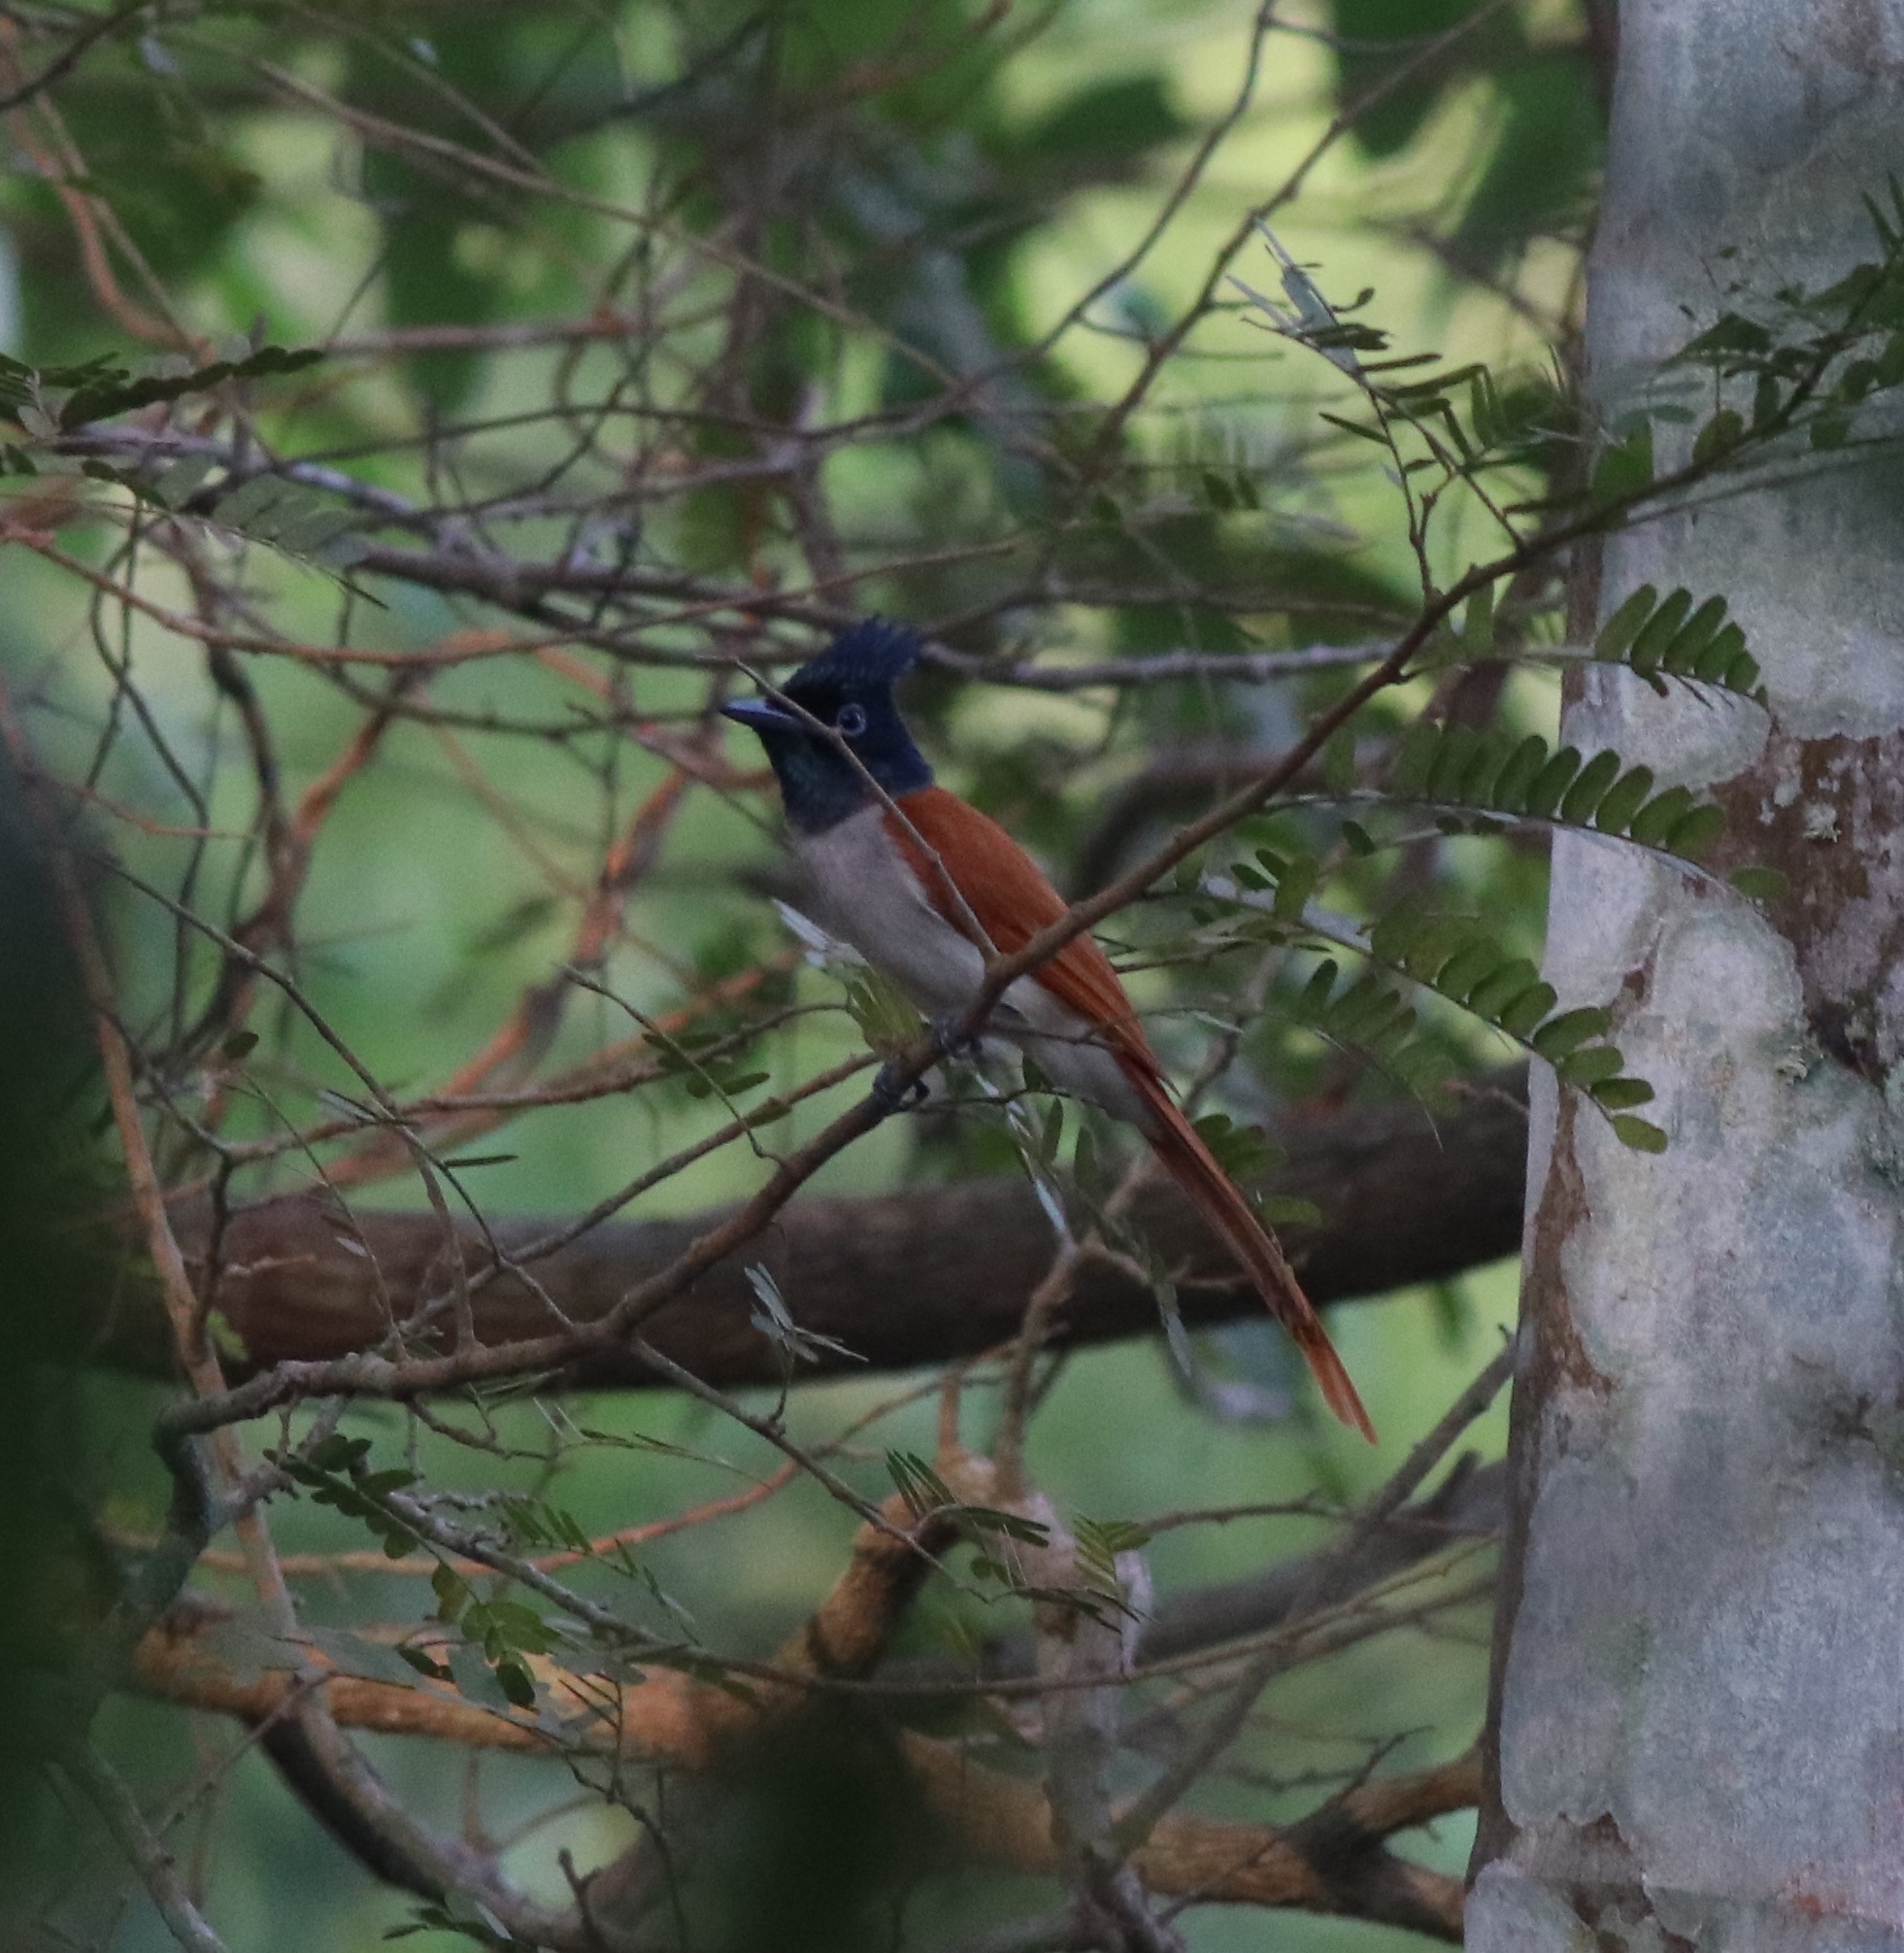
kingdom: Animalia
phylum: Chordata
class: Aves
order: Passeriformes
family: Monarchidae
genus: Terpsiphone
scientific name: Terpsiphone paradisi
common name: Indian paradise flycatcher
